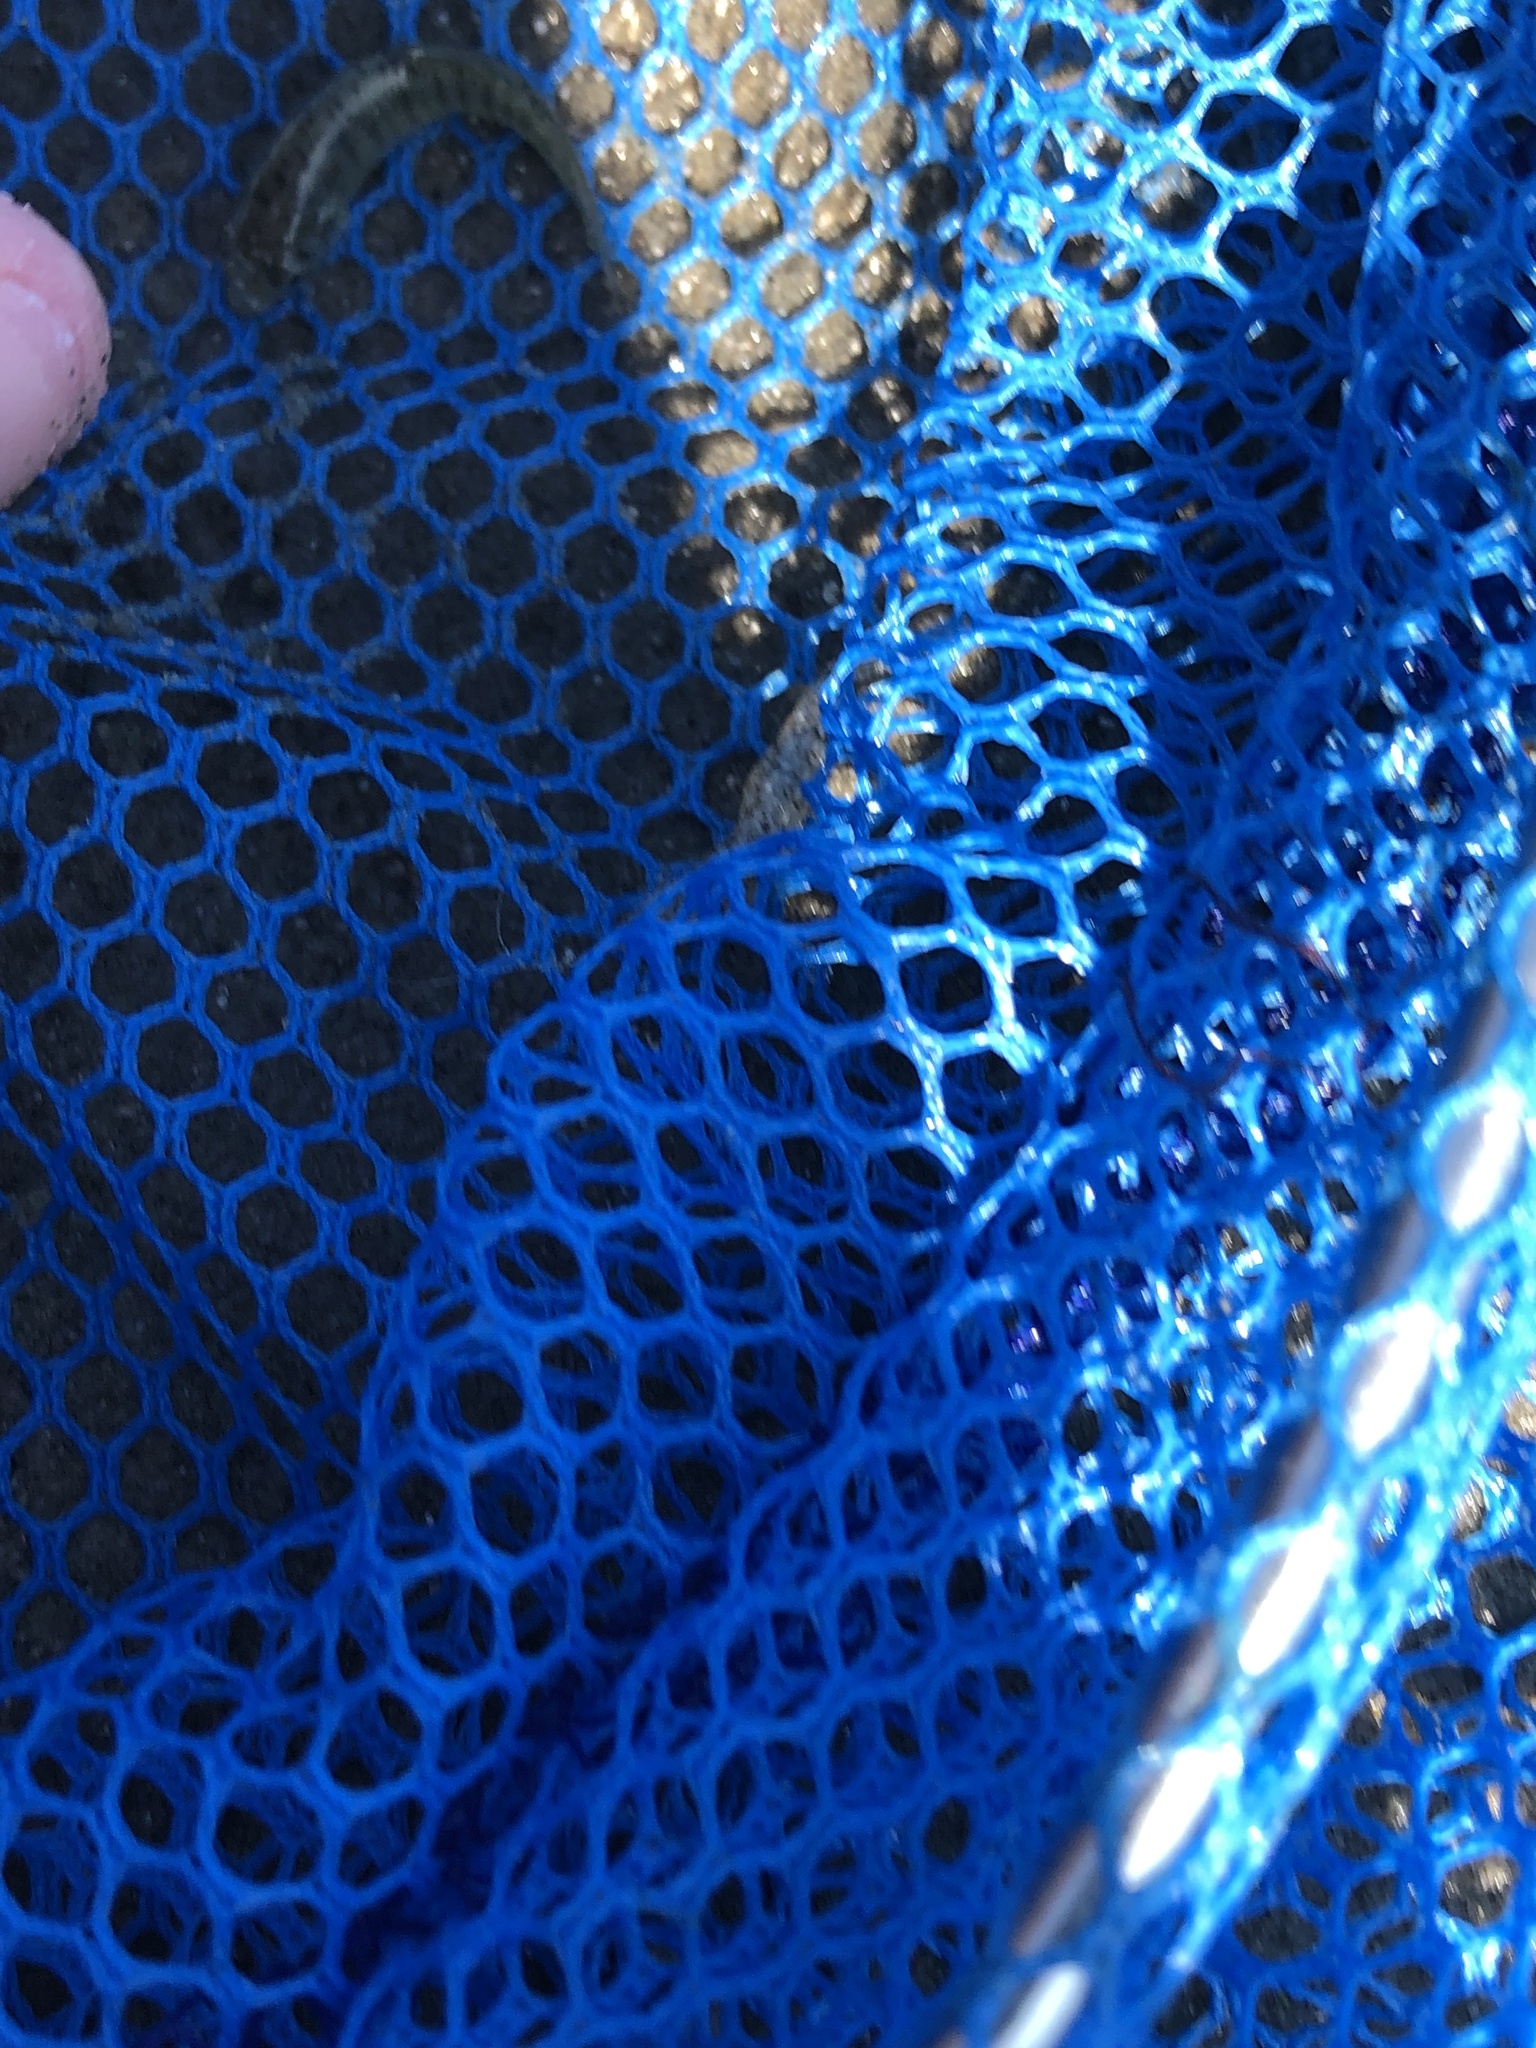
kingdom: Animalia
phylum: Chordata
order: Cyprinodontiformes
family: Fundulidae
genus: Fundulus
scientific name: Fundulus heteroclitus
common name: Mummichog
